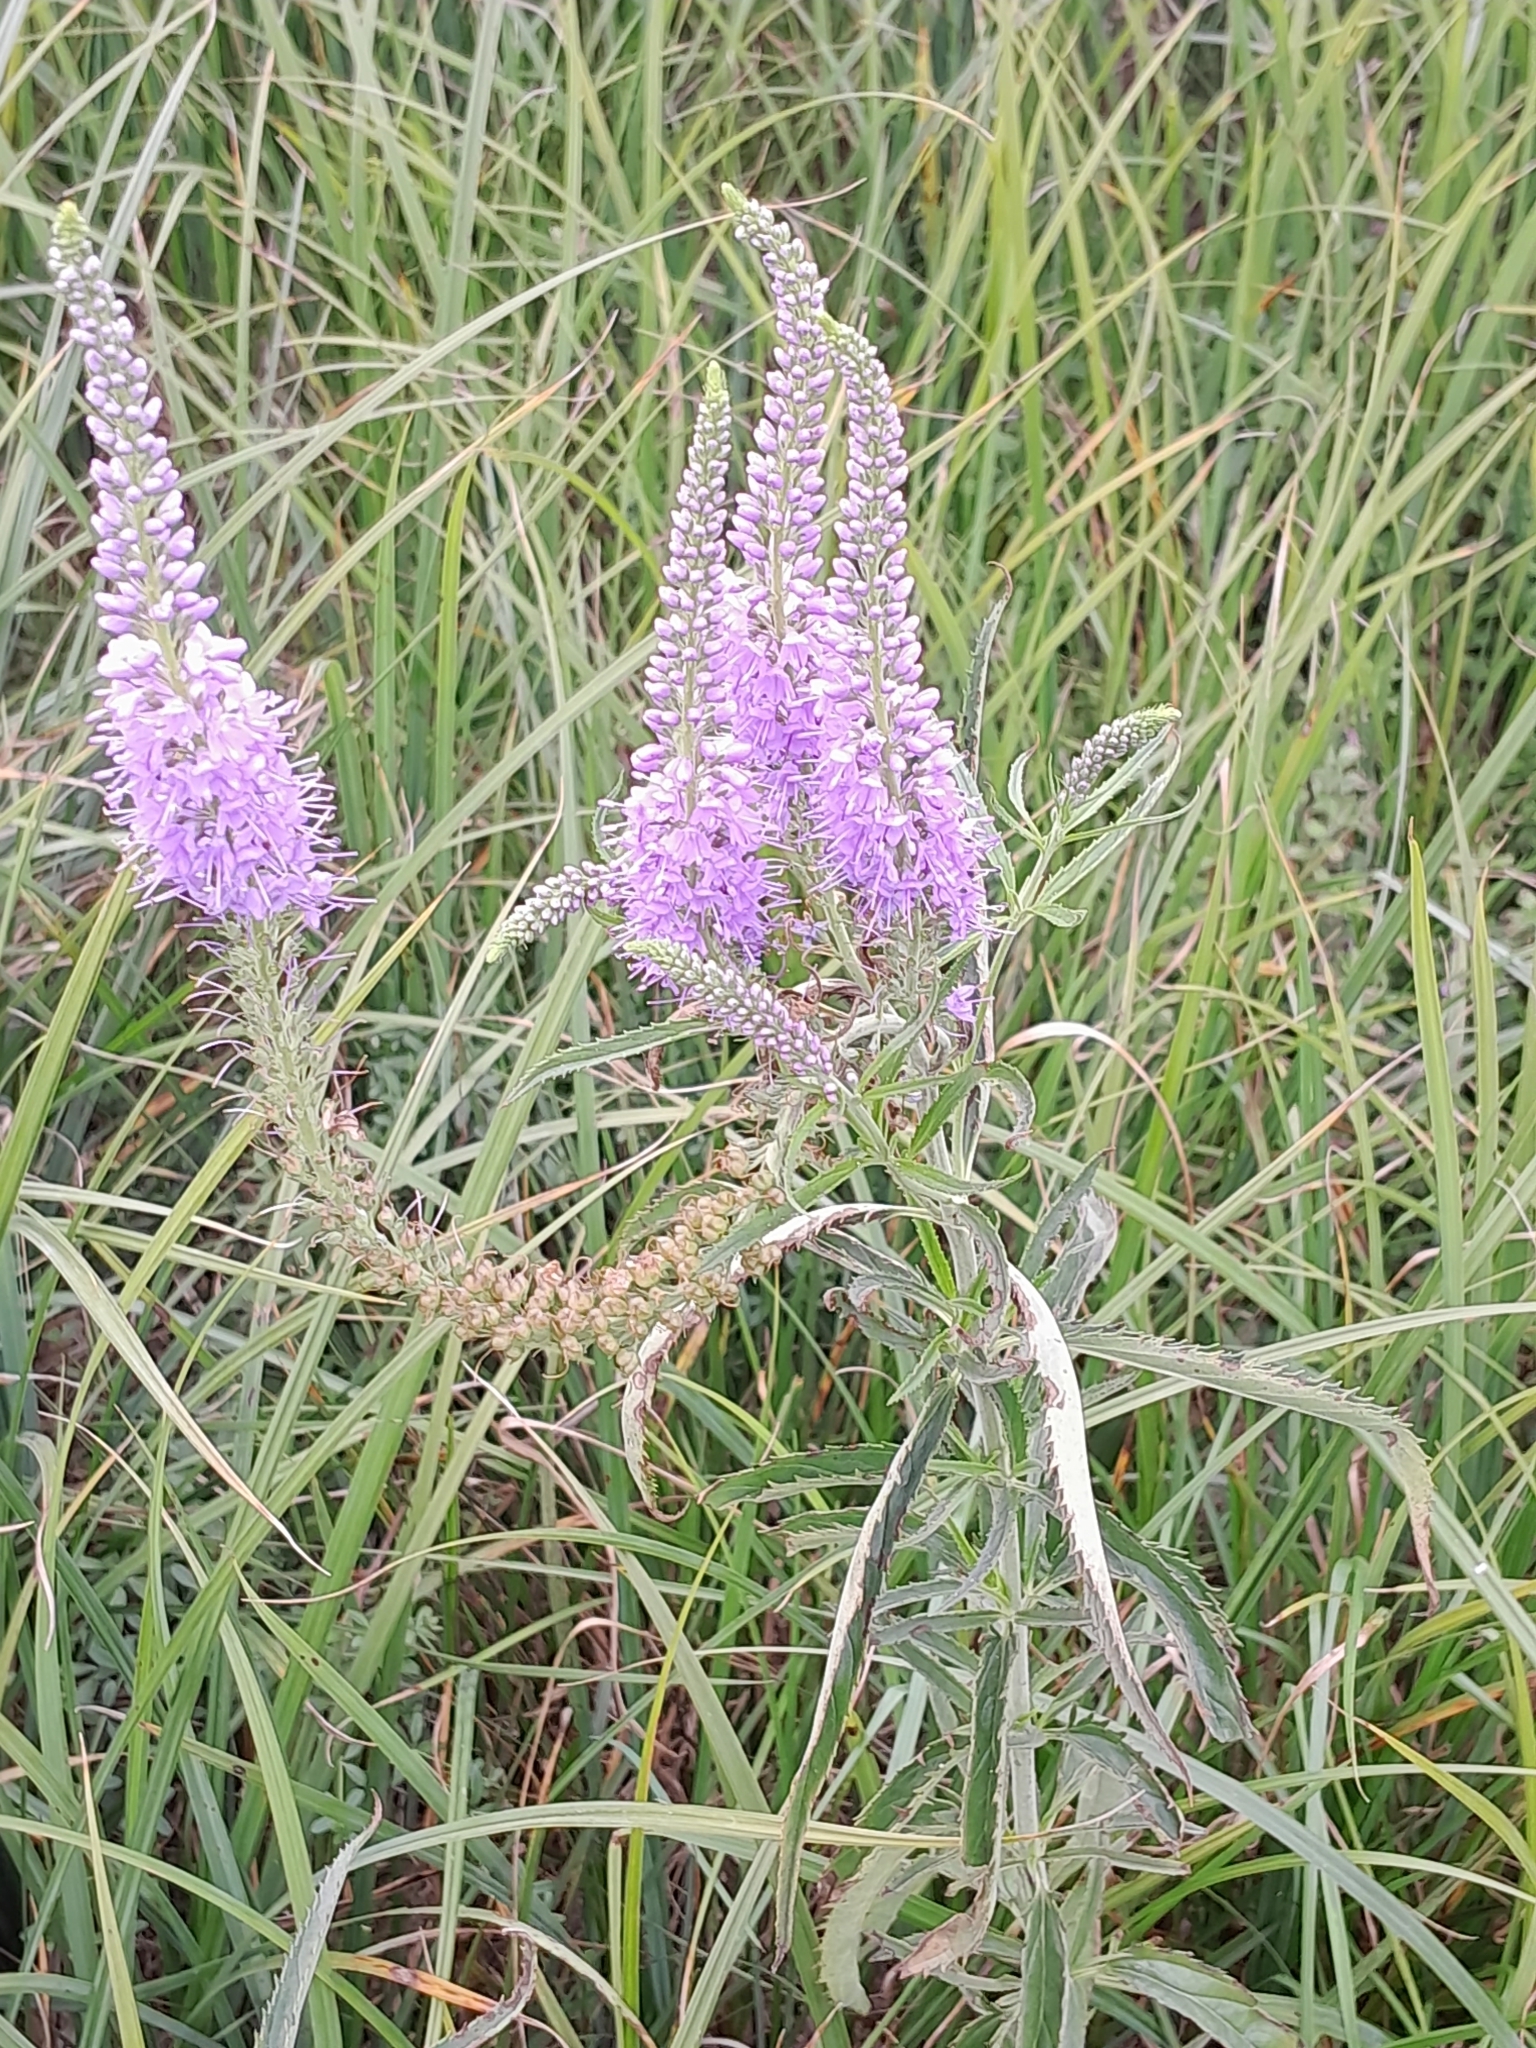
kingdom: Plantae
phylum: Tracheophyta
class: Magnoliopsida
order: Lamiales
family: Plantaginaceae
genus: Veronica
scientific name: Veronica longifolia
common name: Garden speedwell
